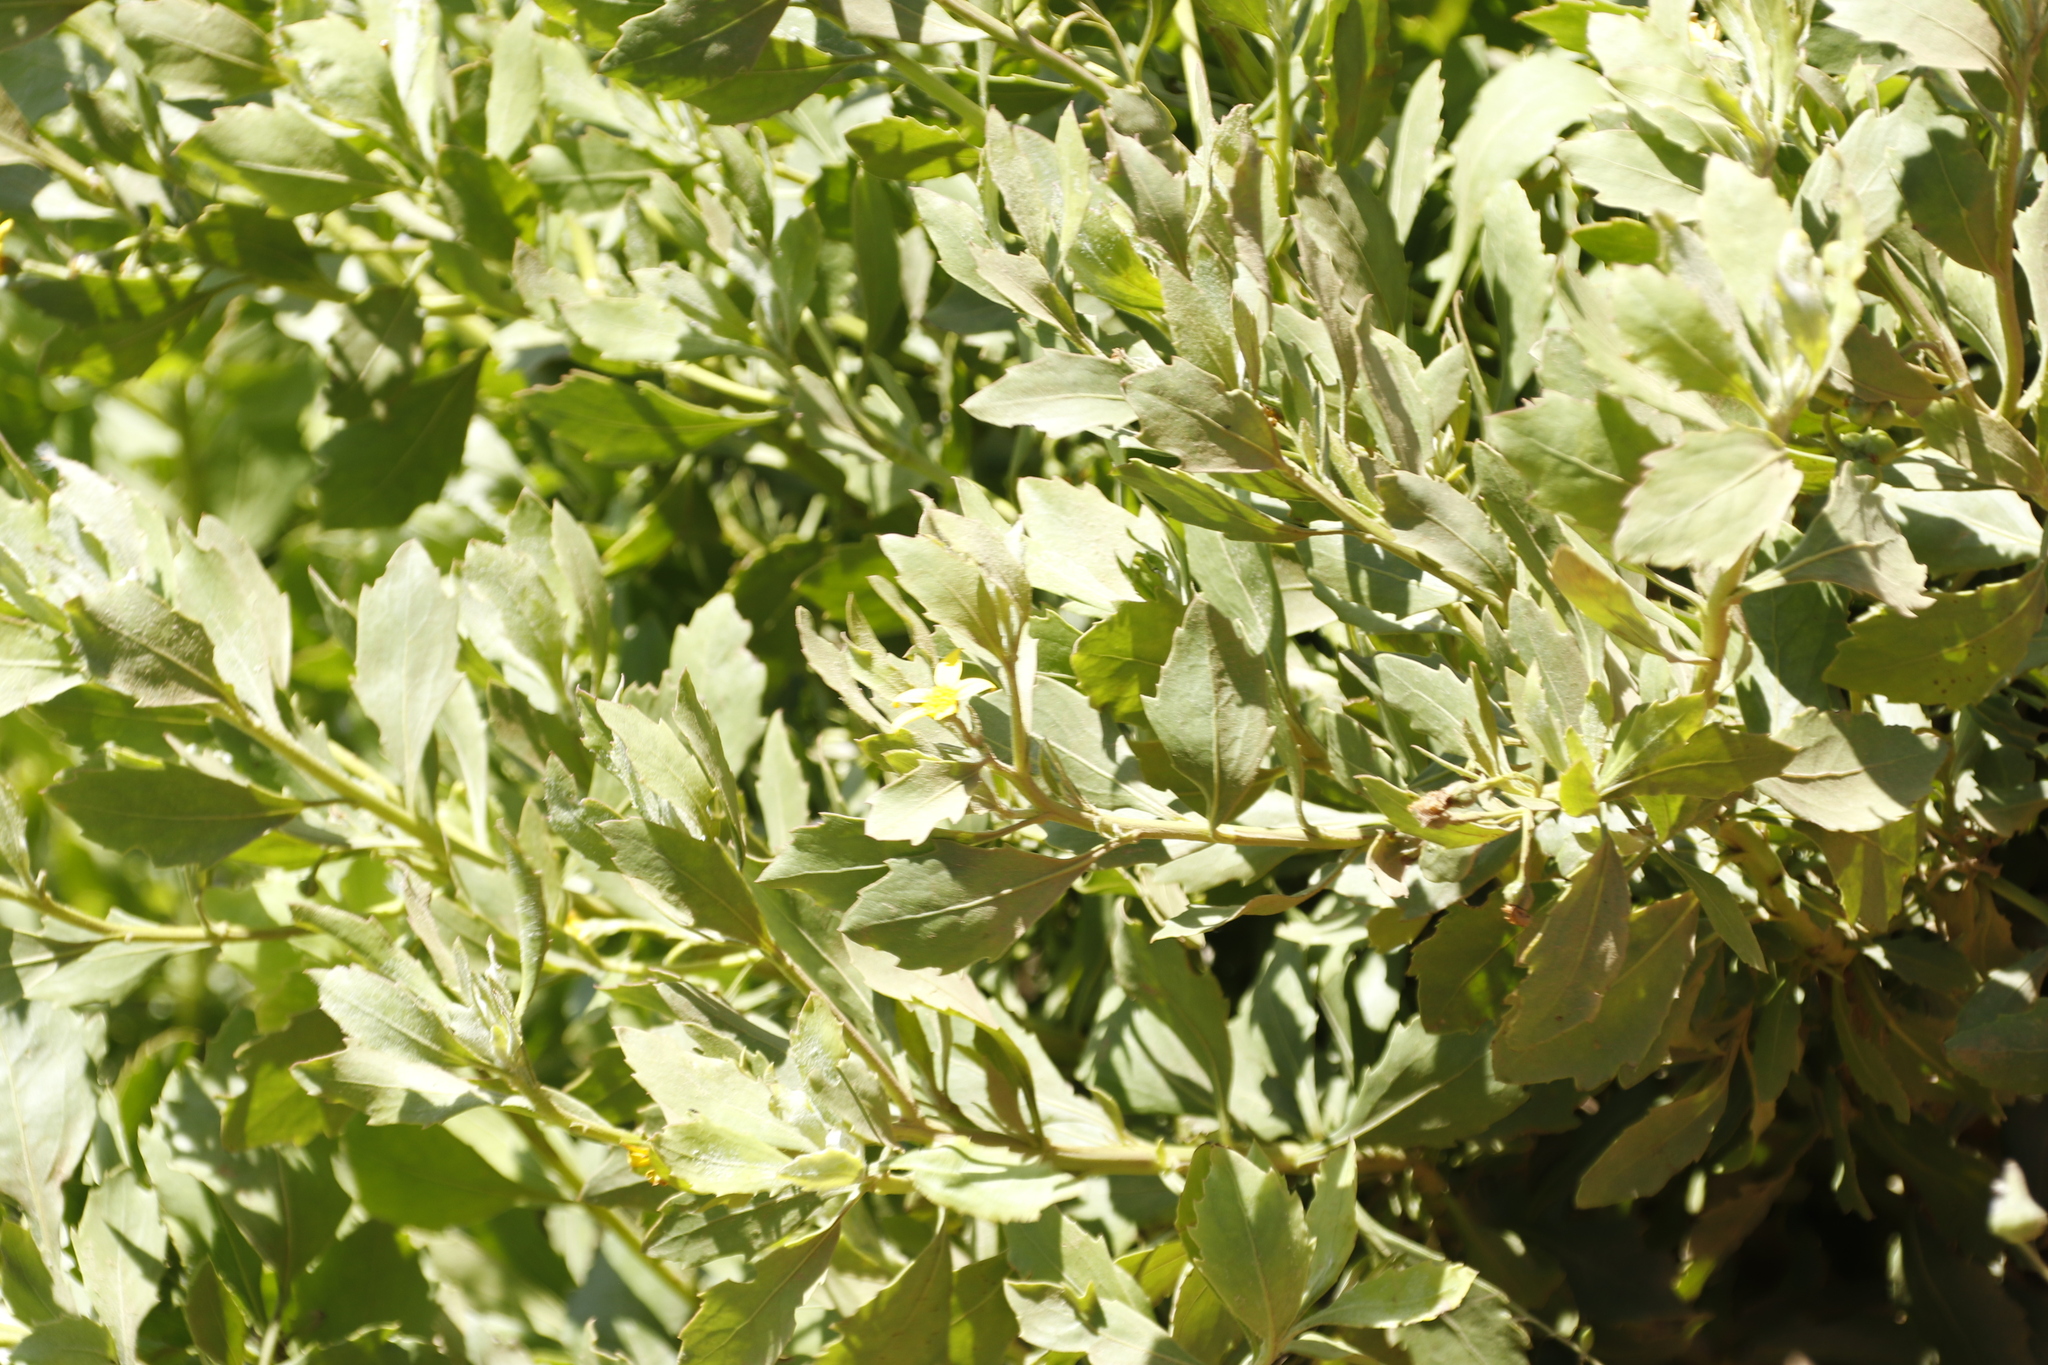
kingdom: Plantae
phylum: Tracheophyta
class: Magnoliopsida
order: Asterales
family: Asteraceae
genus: Osteospermum
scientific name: Osteospermum moniliferum
